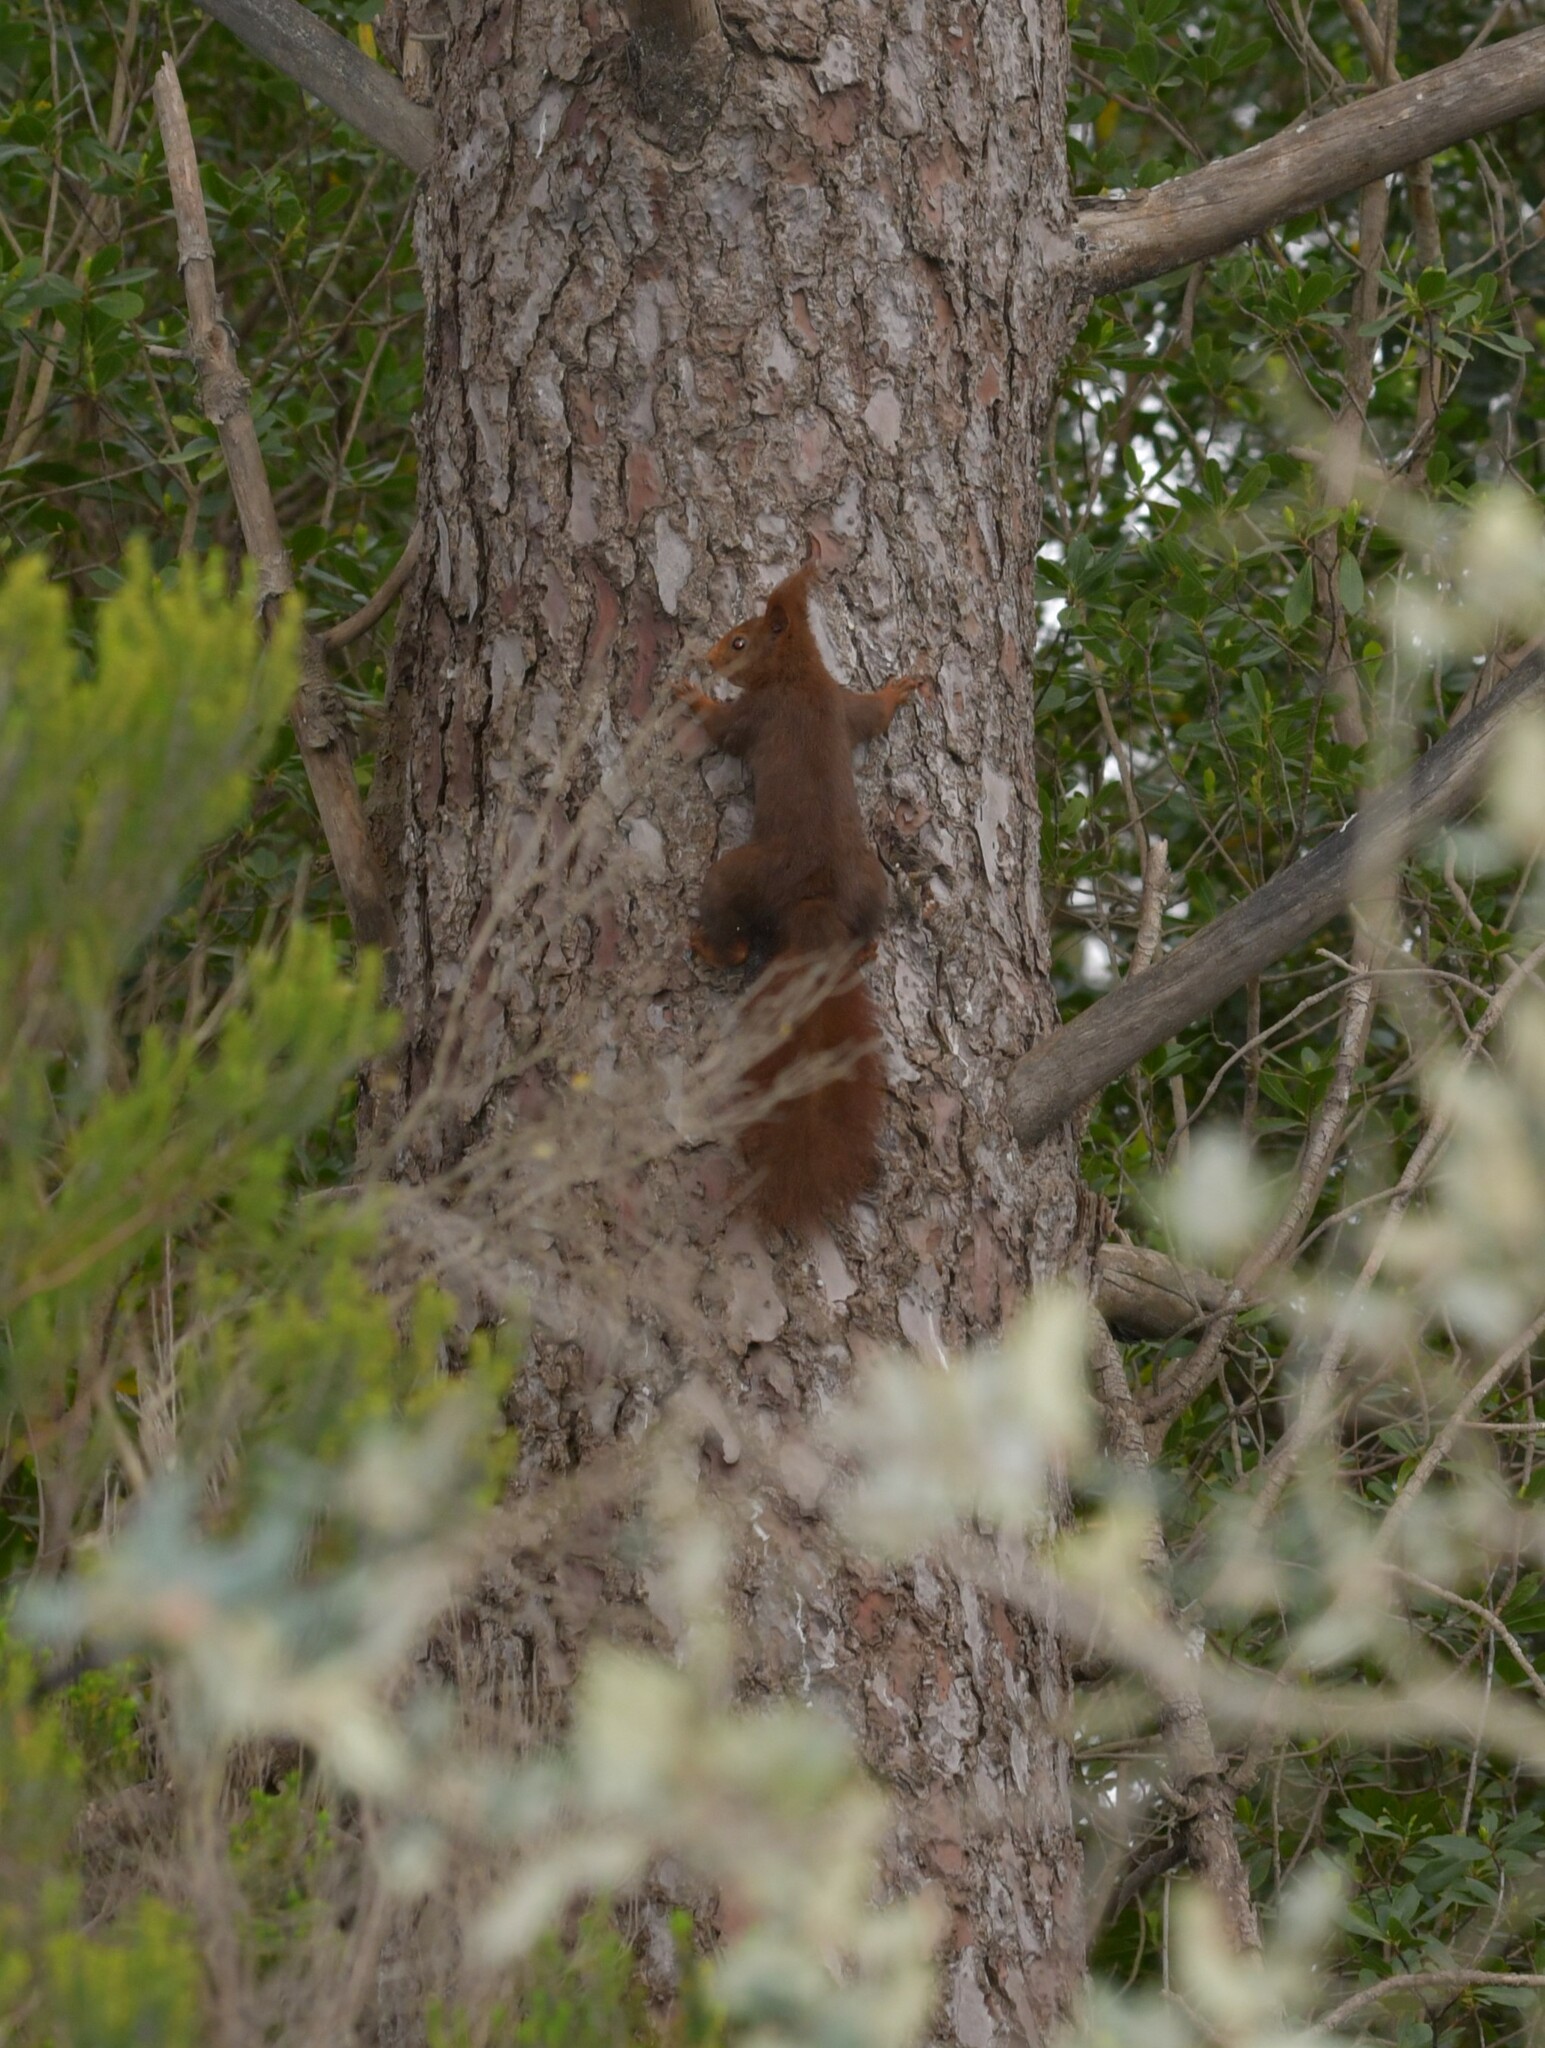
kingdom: Animalia
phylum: Chordata
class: Mammalia
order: Rodentia
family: Sciuridae
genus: Sciurus
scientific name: Sciurus vulgaris
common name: Eurasian red squirrel
